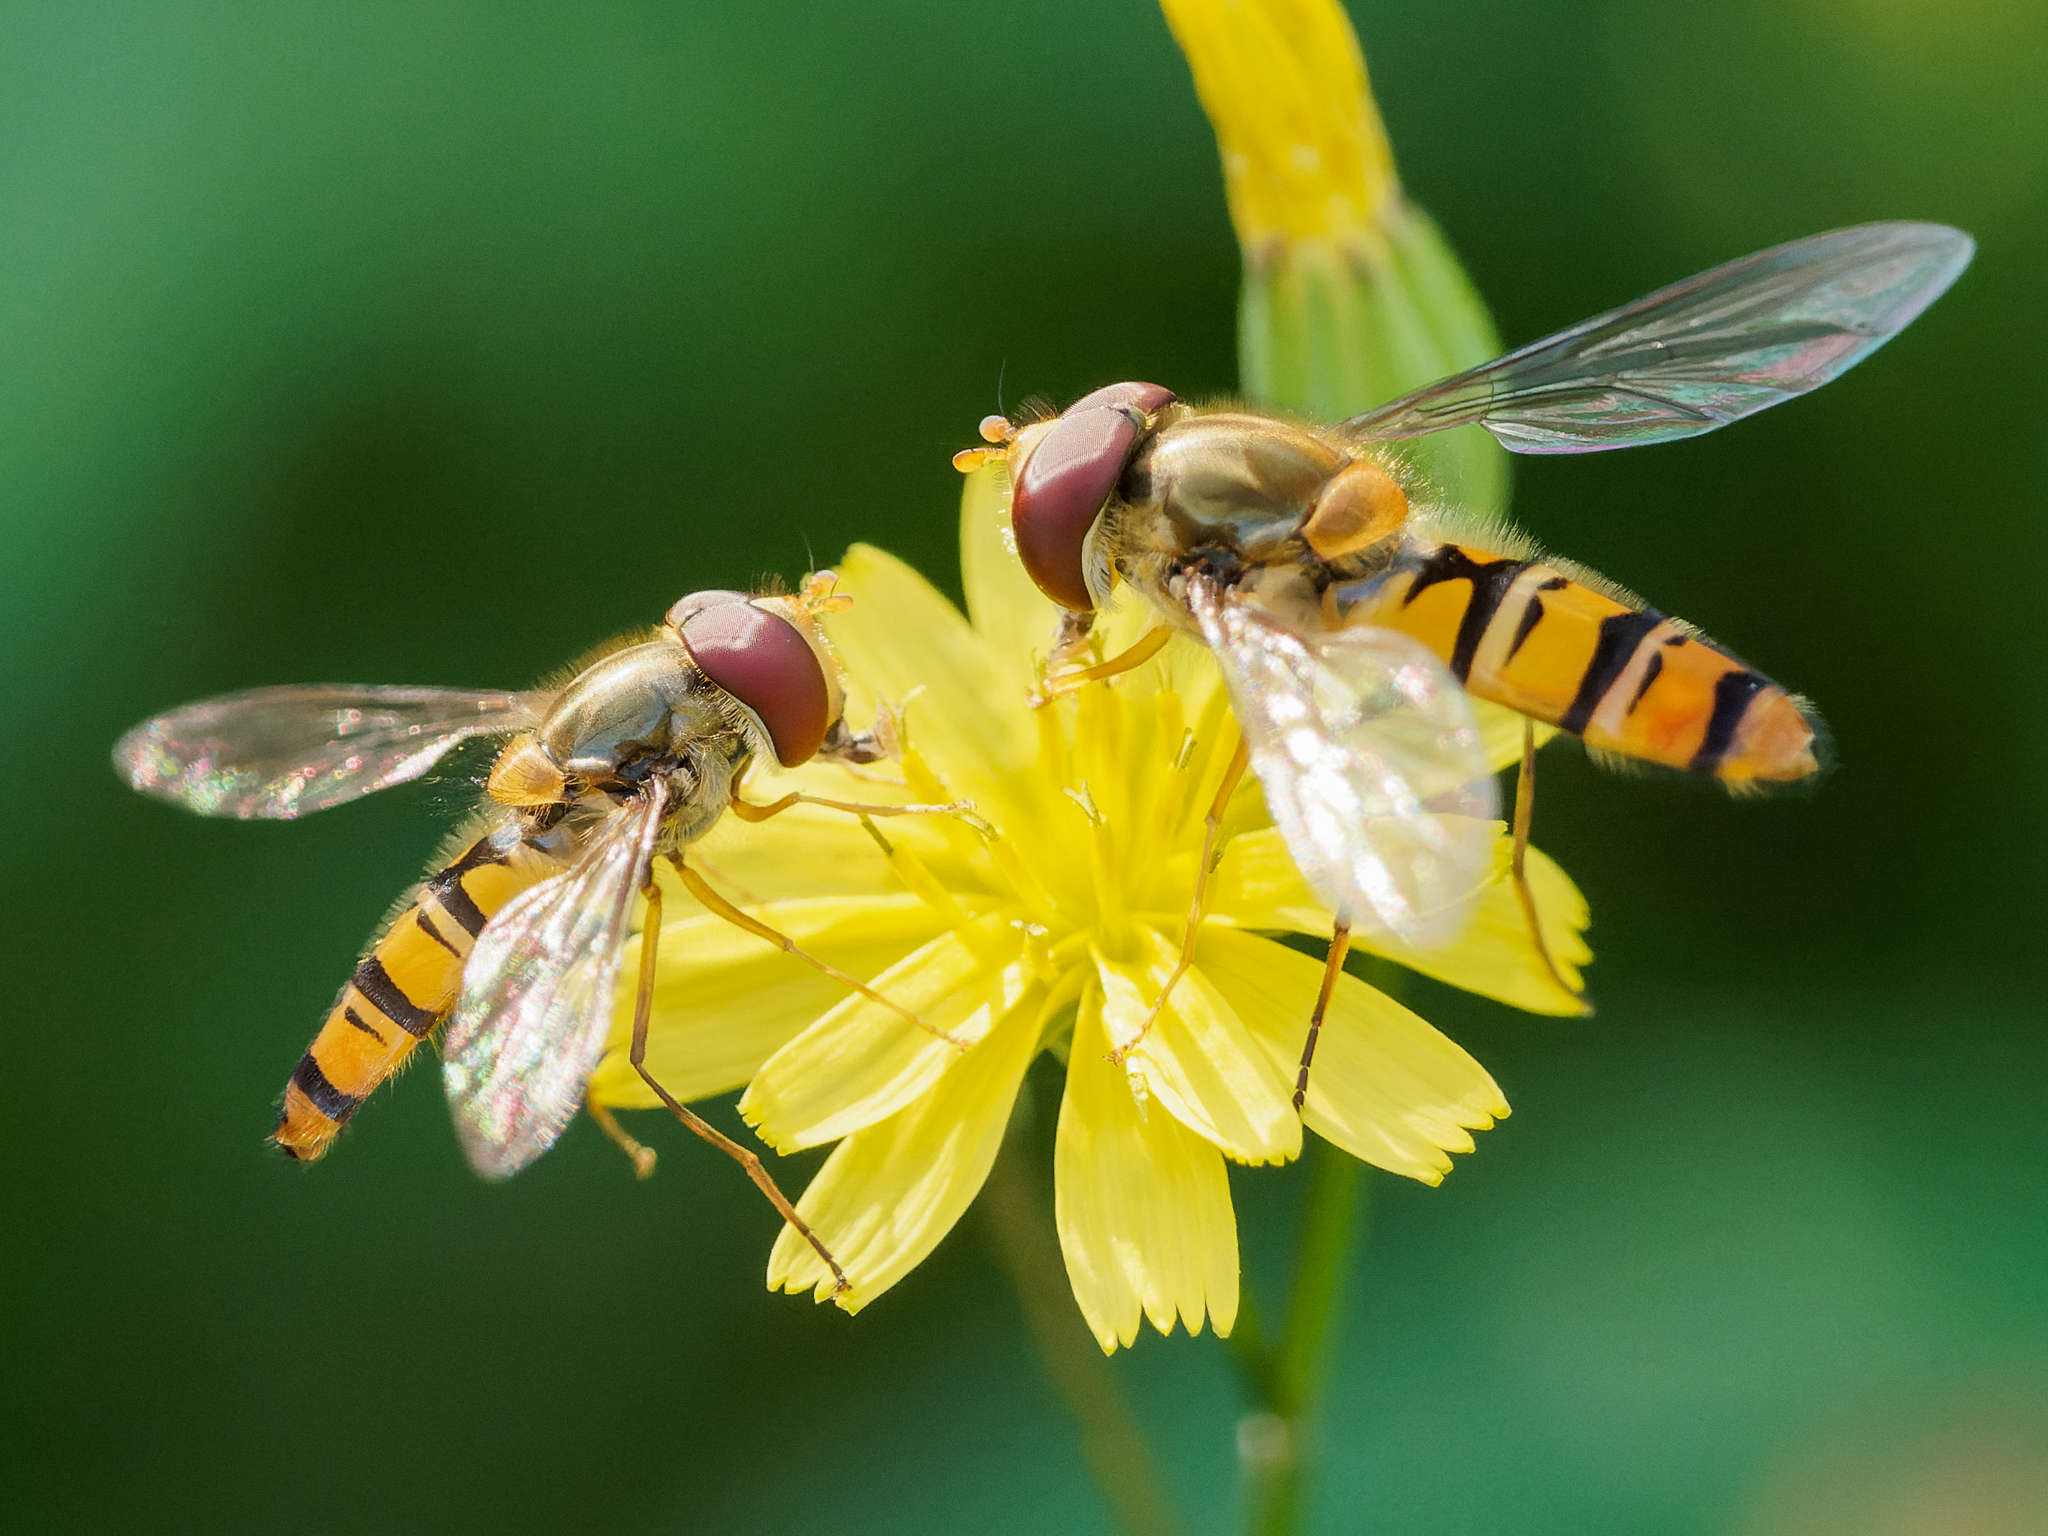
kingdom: Animalia
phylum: Arthropoda
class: Insecta
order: Diptera
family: Syrphidae
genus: Episyrphus
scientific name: Episyrphus balteatus
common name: Marmalade hoverfly
